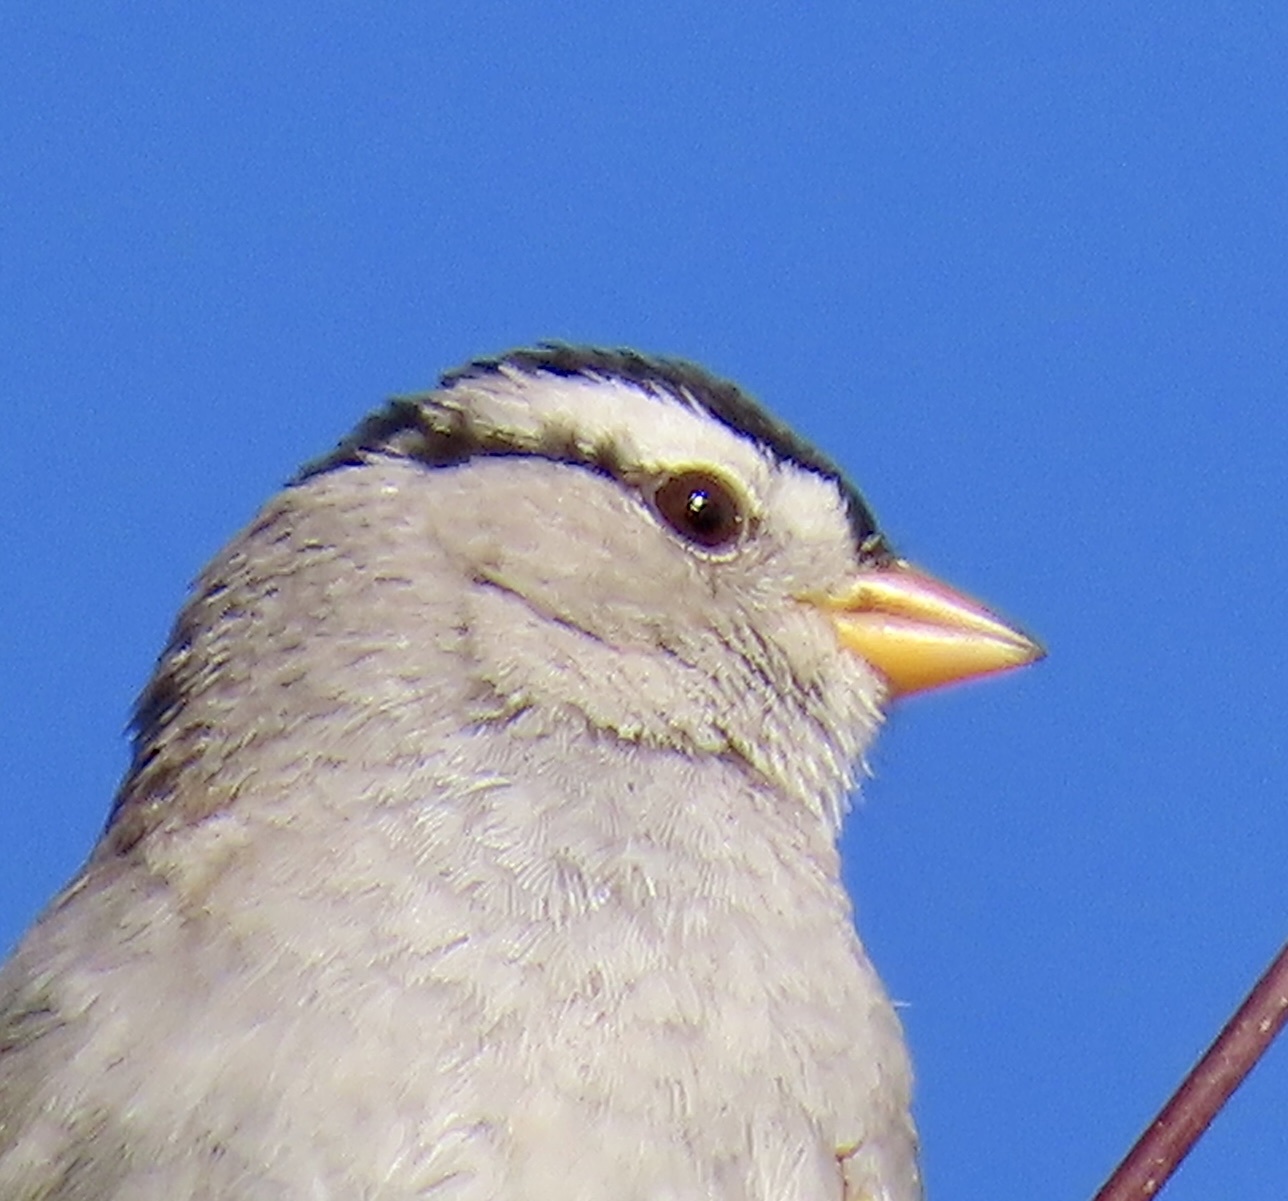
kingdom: Animalia
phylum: Chordata
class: Aves
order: Passeriformes
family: Passerellidae
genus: Zonotrichia
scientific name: Zonotrichia leucophrys
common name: White-crowned sparrow
